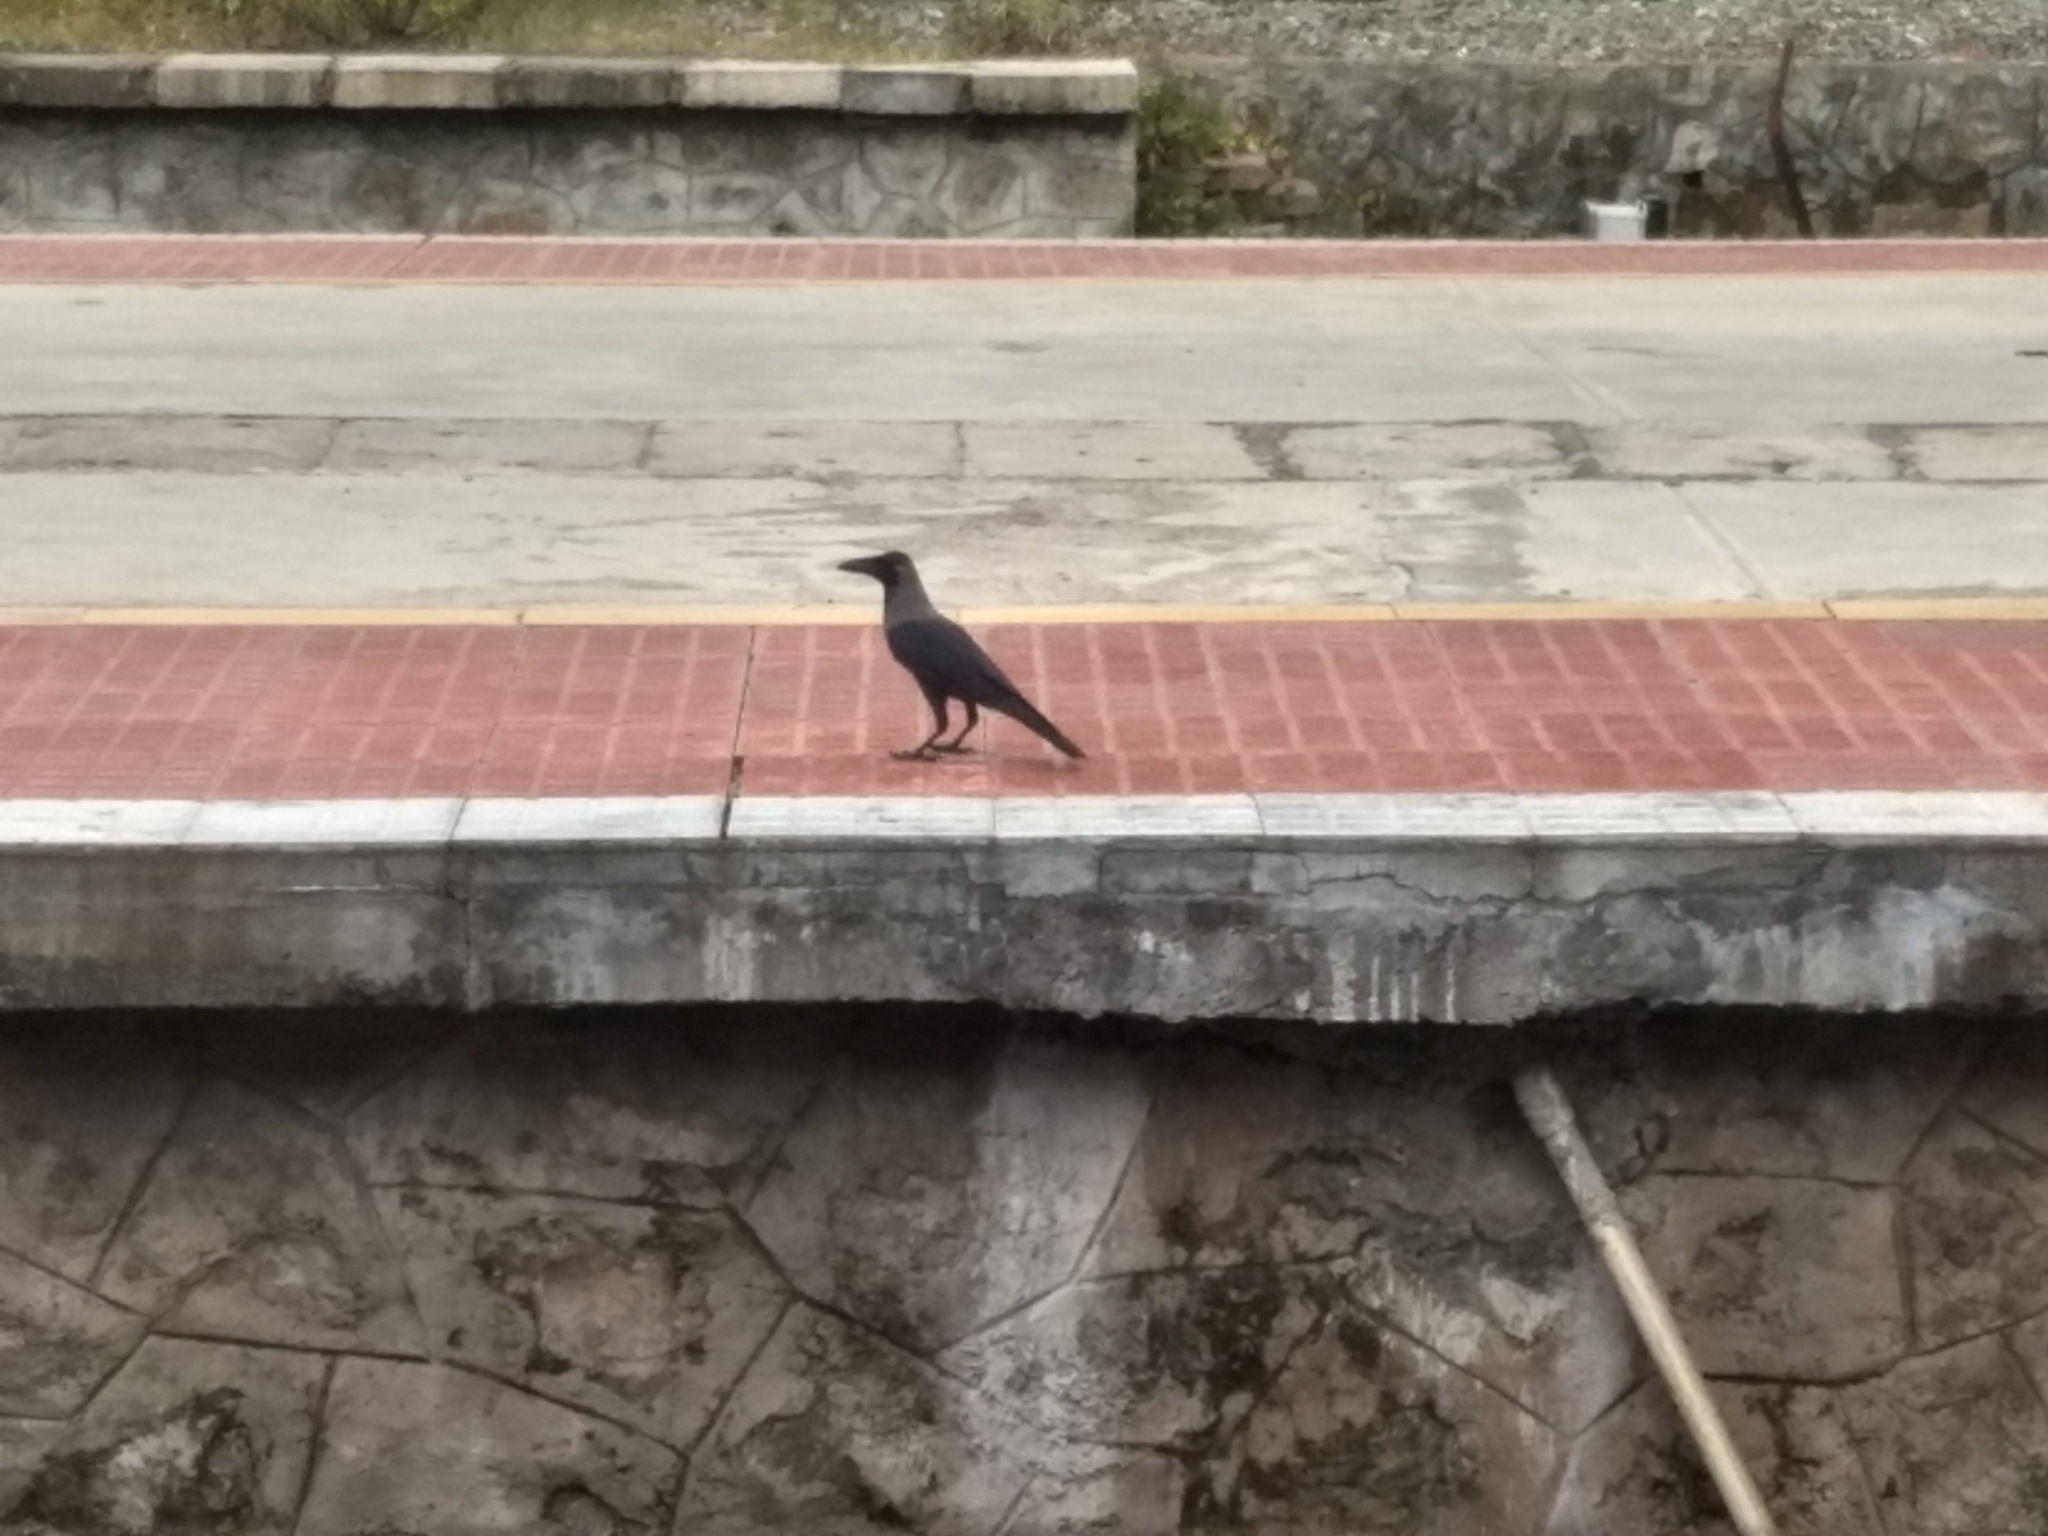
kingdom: Animalia
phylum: Chordata
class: Aves
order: Passeriformes
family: Corvidae
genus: Corvus
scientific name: Corvus splendens
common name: House crow
